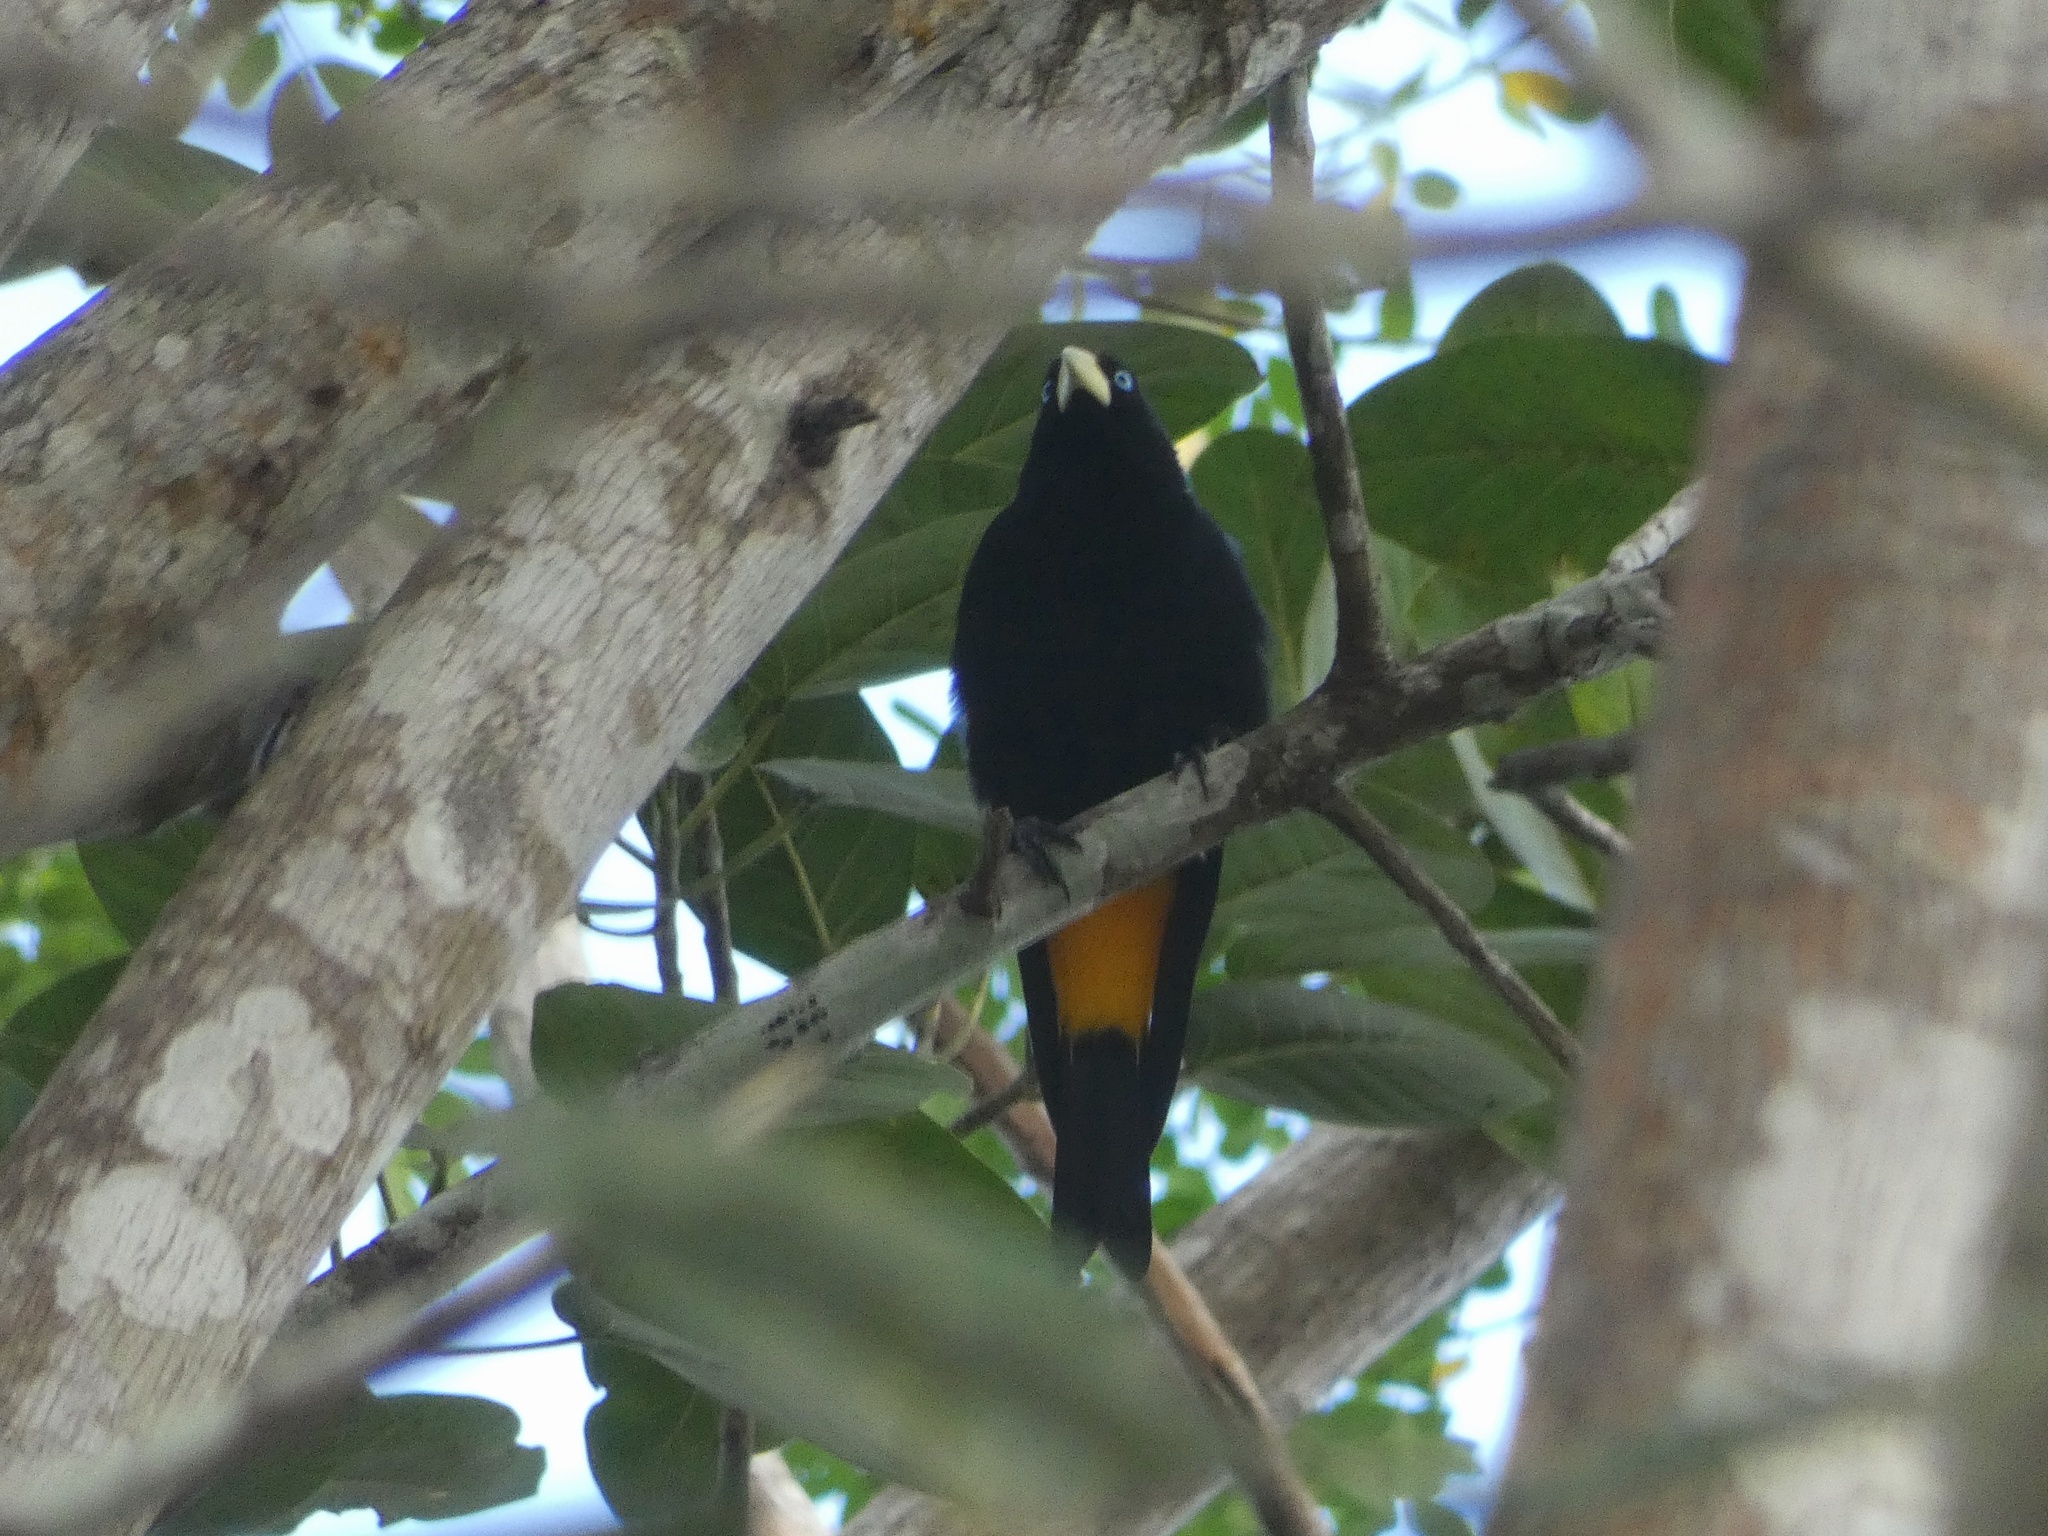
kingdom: Animalia
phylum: Chordata
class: Aves
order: Passeriformes
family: Icteridae
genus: Cacicus
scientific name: Cacicus cela
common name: Yellow-rumped cacique
